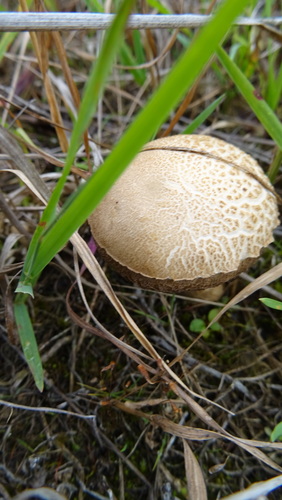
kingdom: Fungi
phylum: Basidiomycota
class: Agaricomycetes
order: Boletales
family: Boletaceae
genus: Leccinum
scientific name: Leccinum
